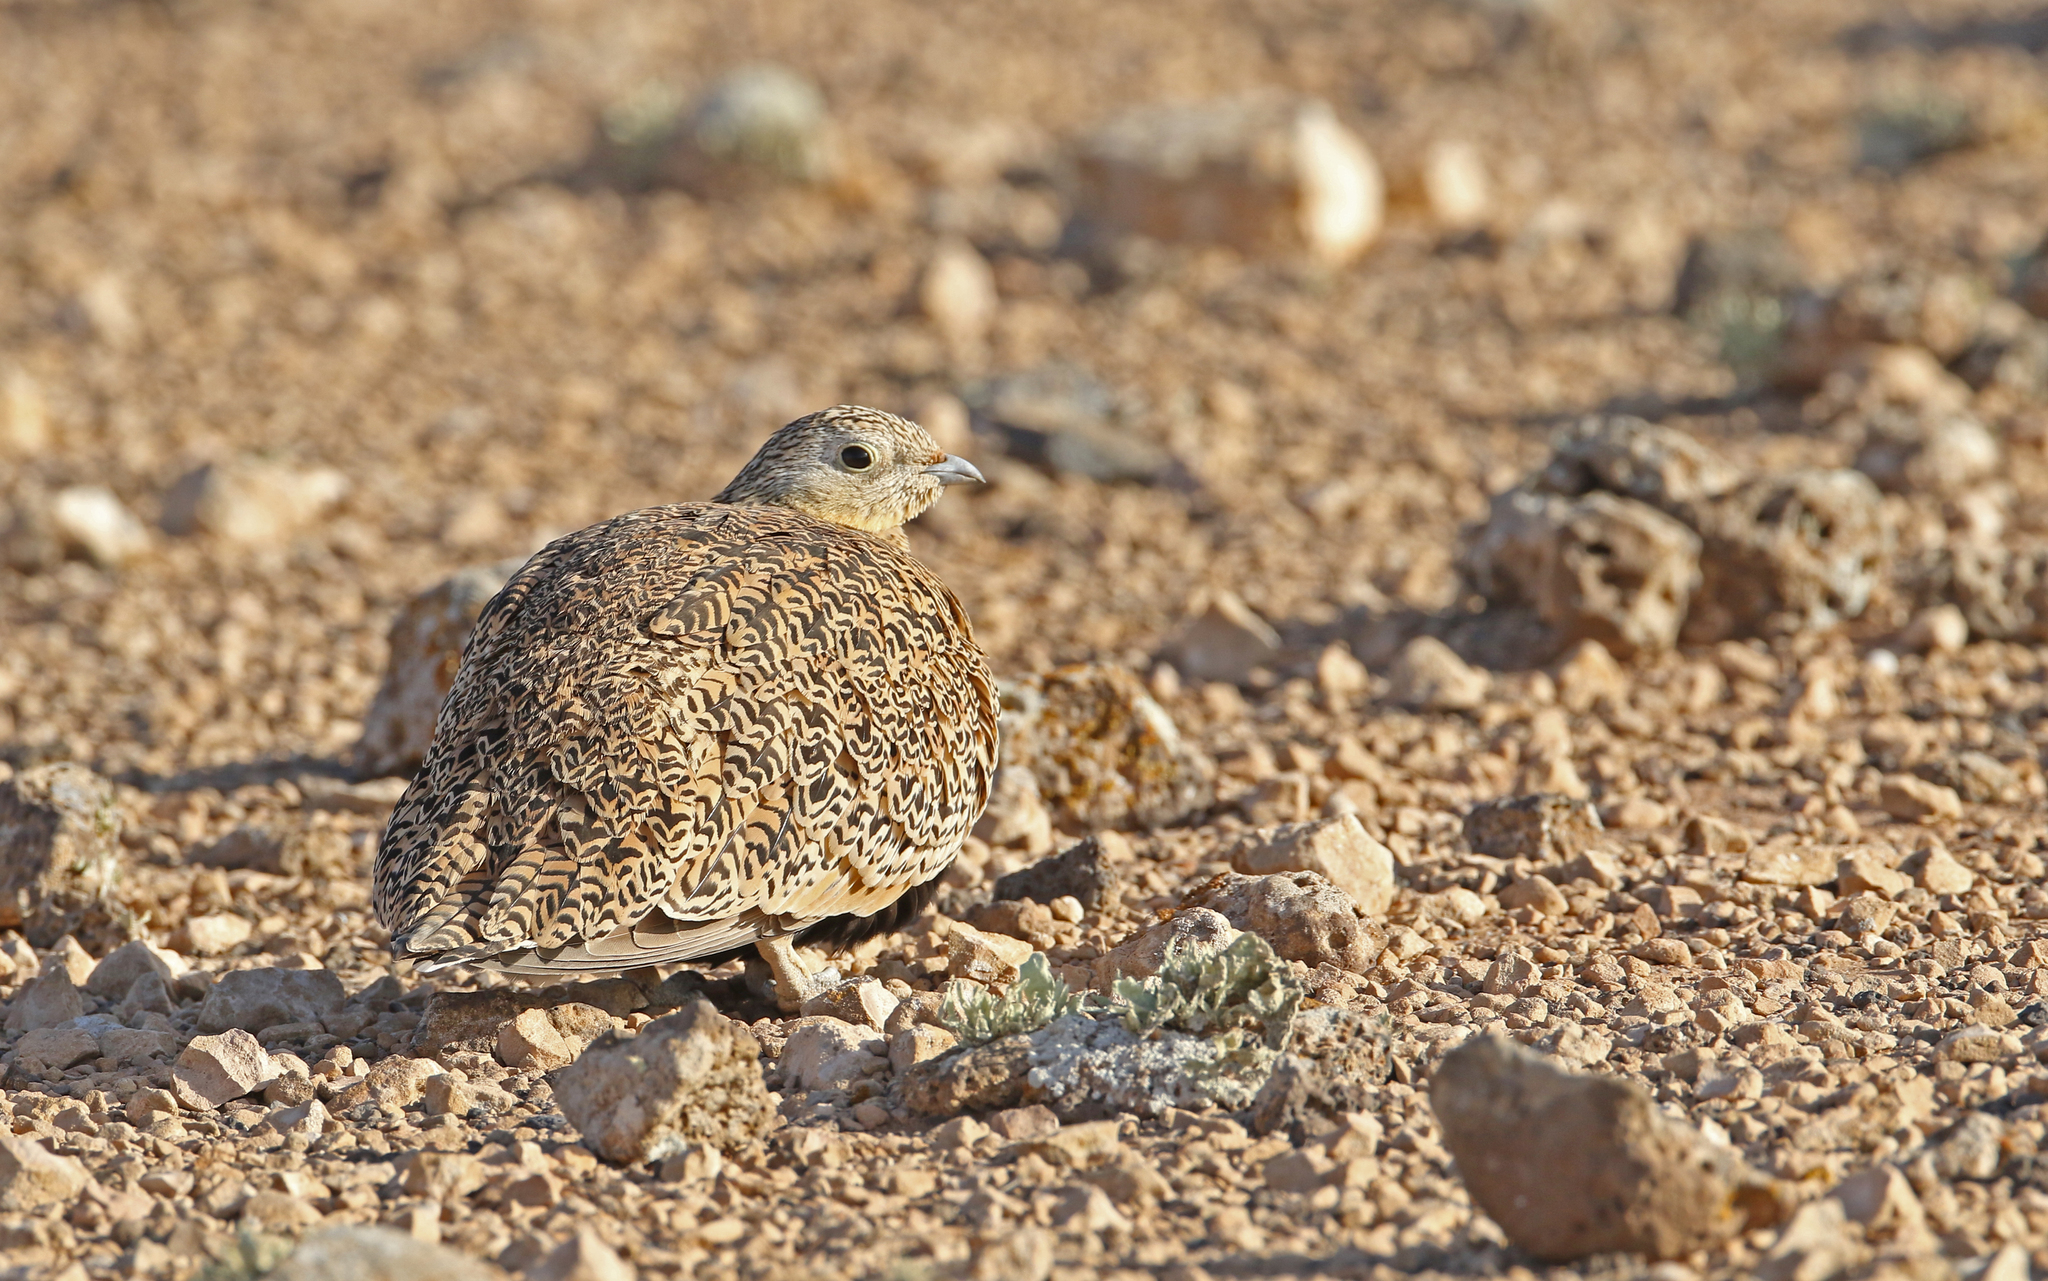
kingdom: Animalia
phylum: Chordata
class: Aves
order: Pteroclidiformes
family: Pteroclididae
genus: Pterocles
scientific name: Pterocles orientalis
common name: Black-bellied sandgrouse
